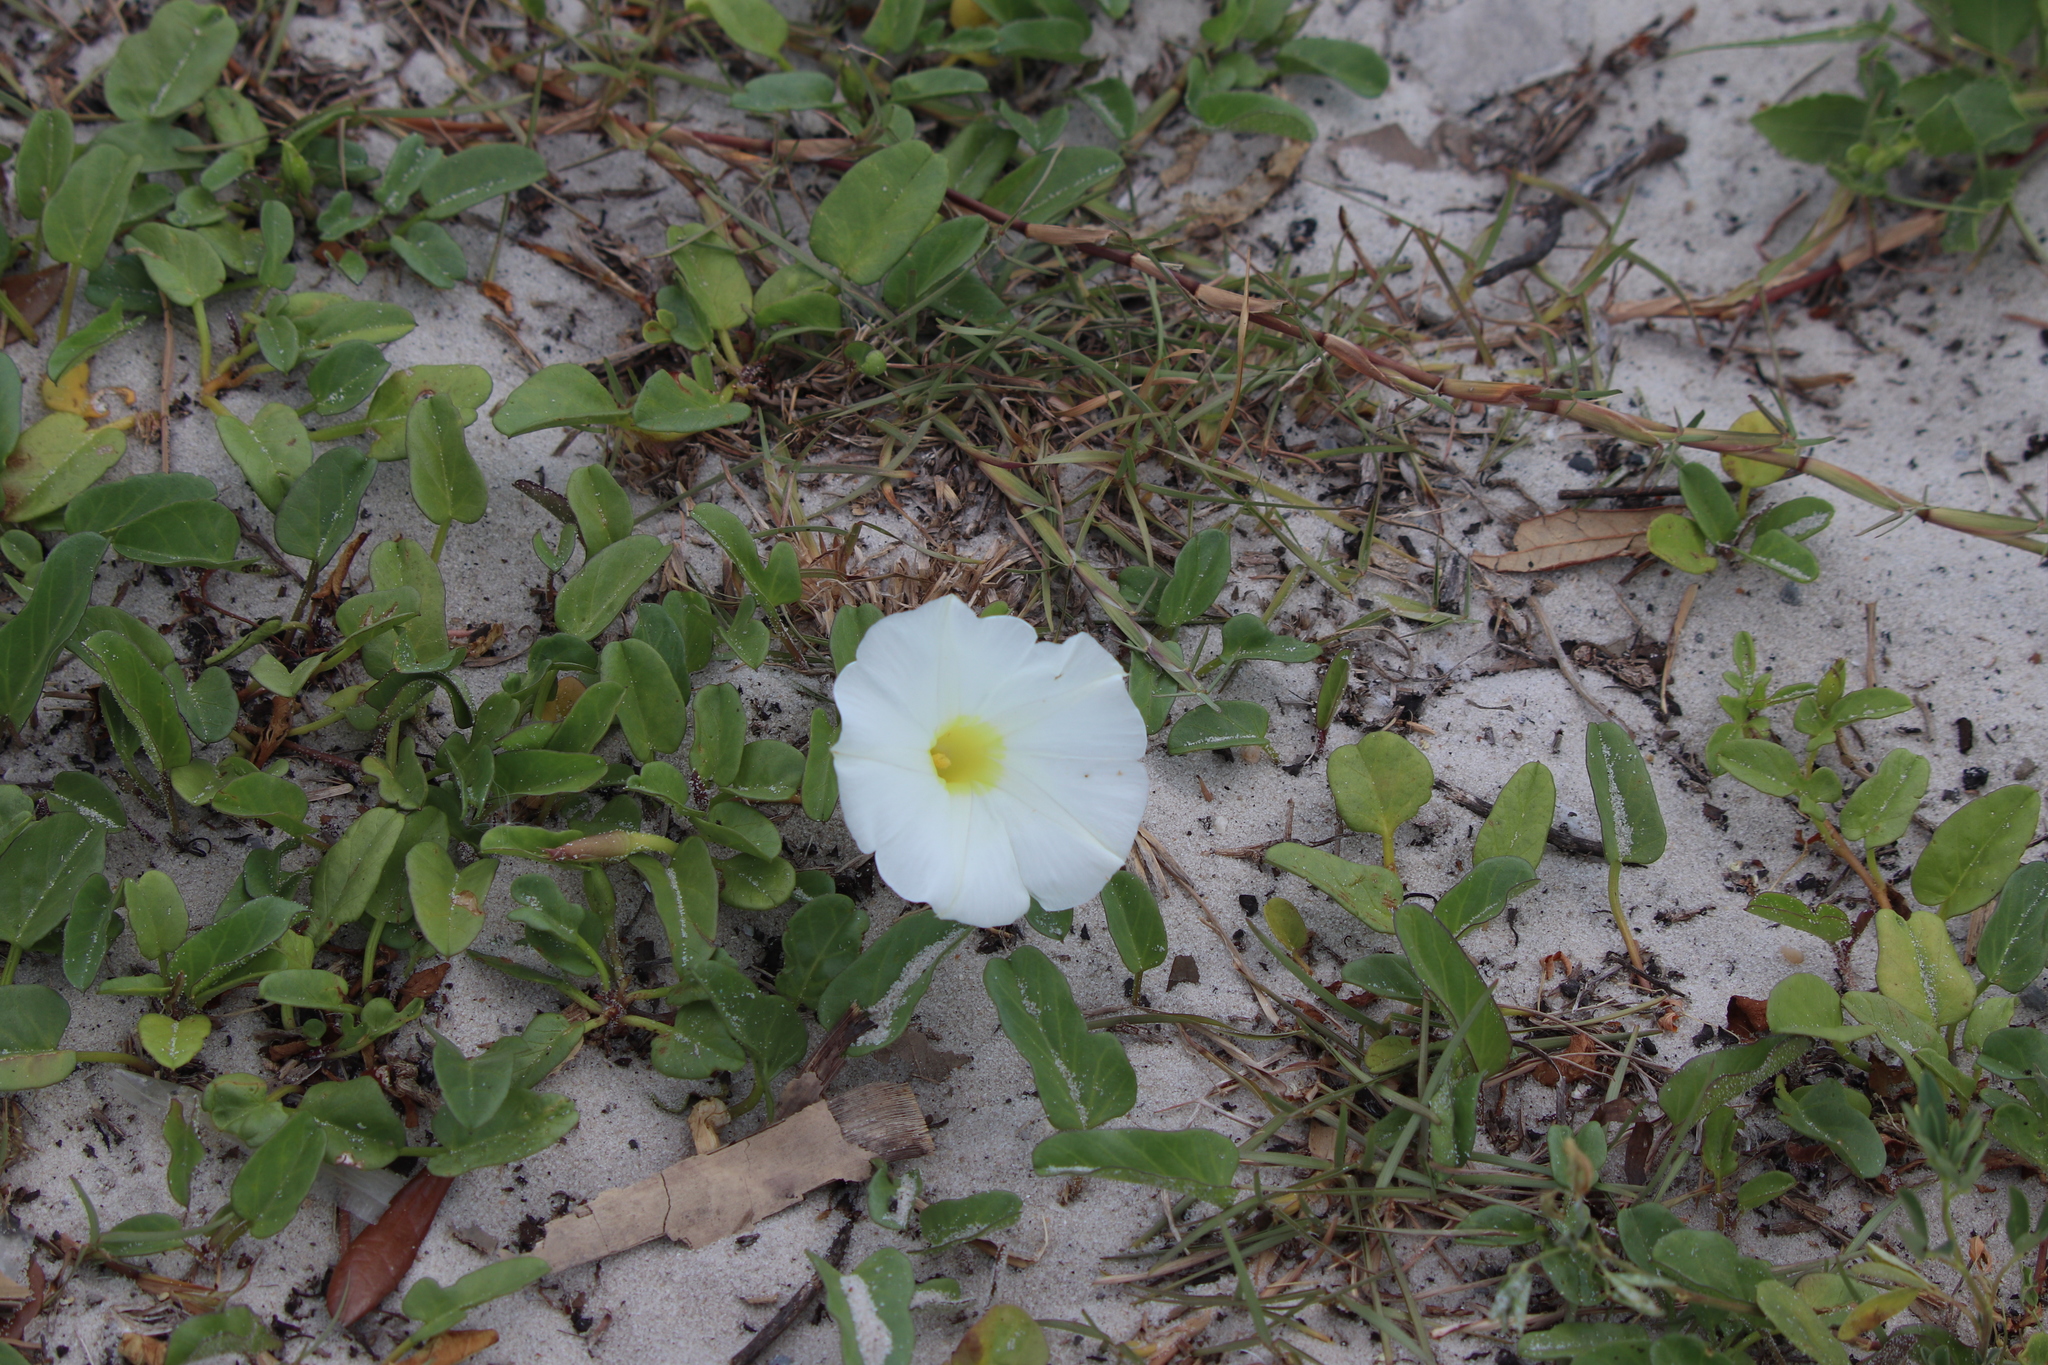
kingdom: Plantae
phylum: Tracheophyta
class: Magnoliopsida
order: Solanales
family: Convolvulaceae
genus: Ipomoea
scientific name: Ipomoea imperati
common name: Fiddle-leaf morning-glory
